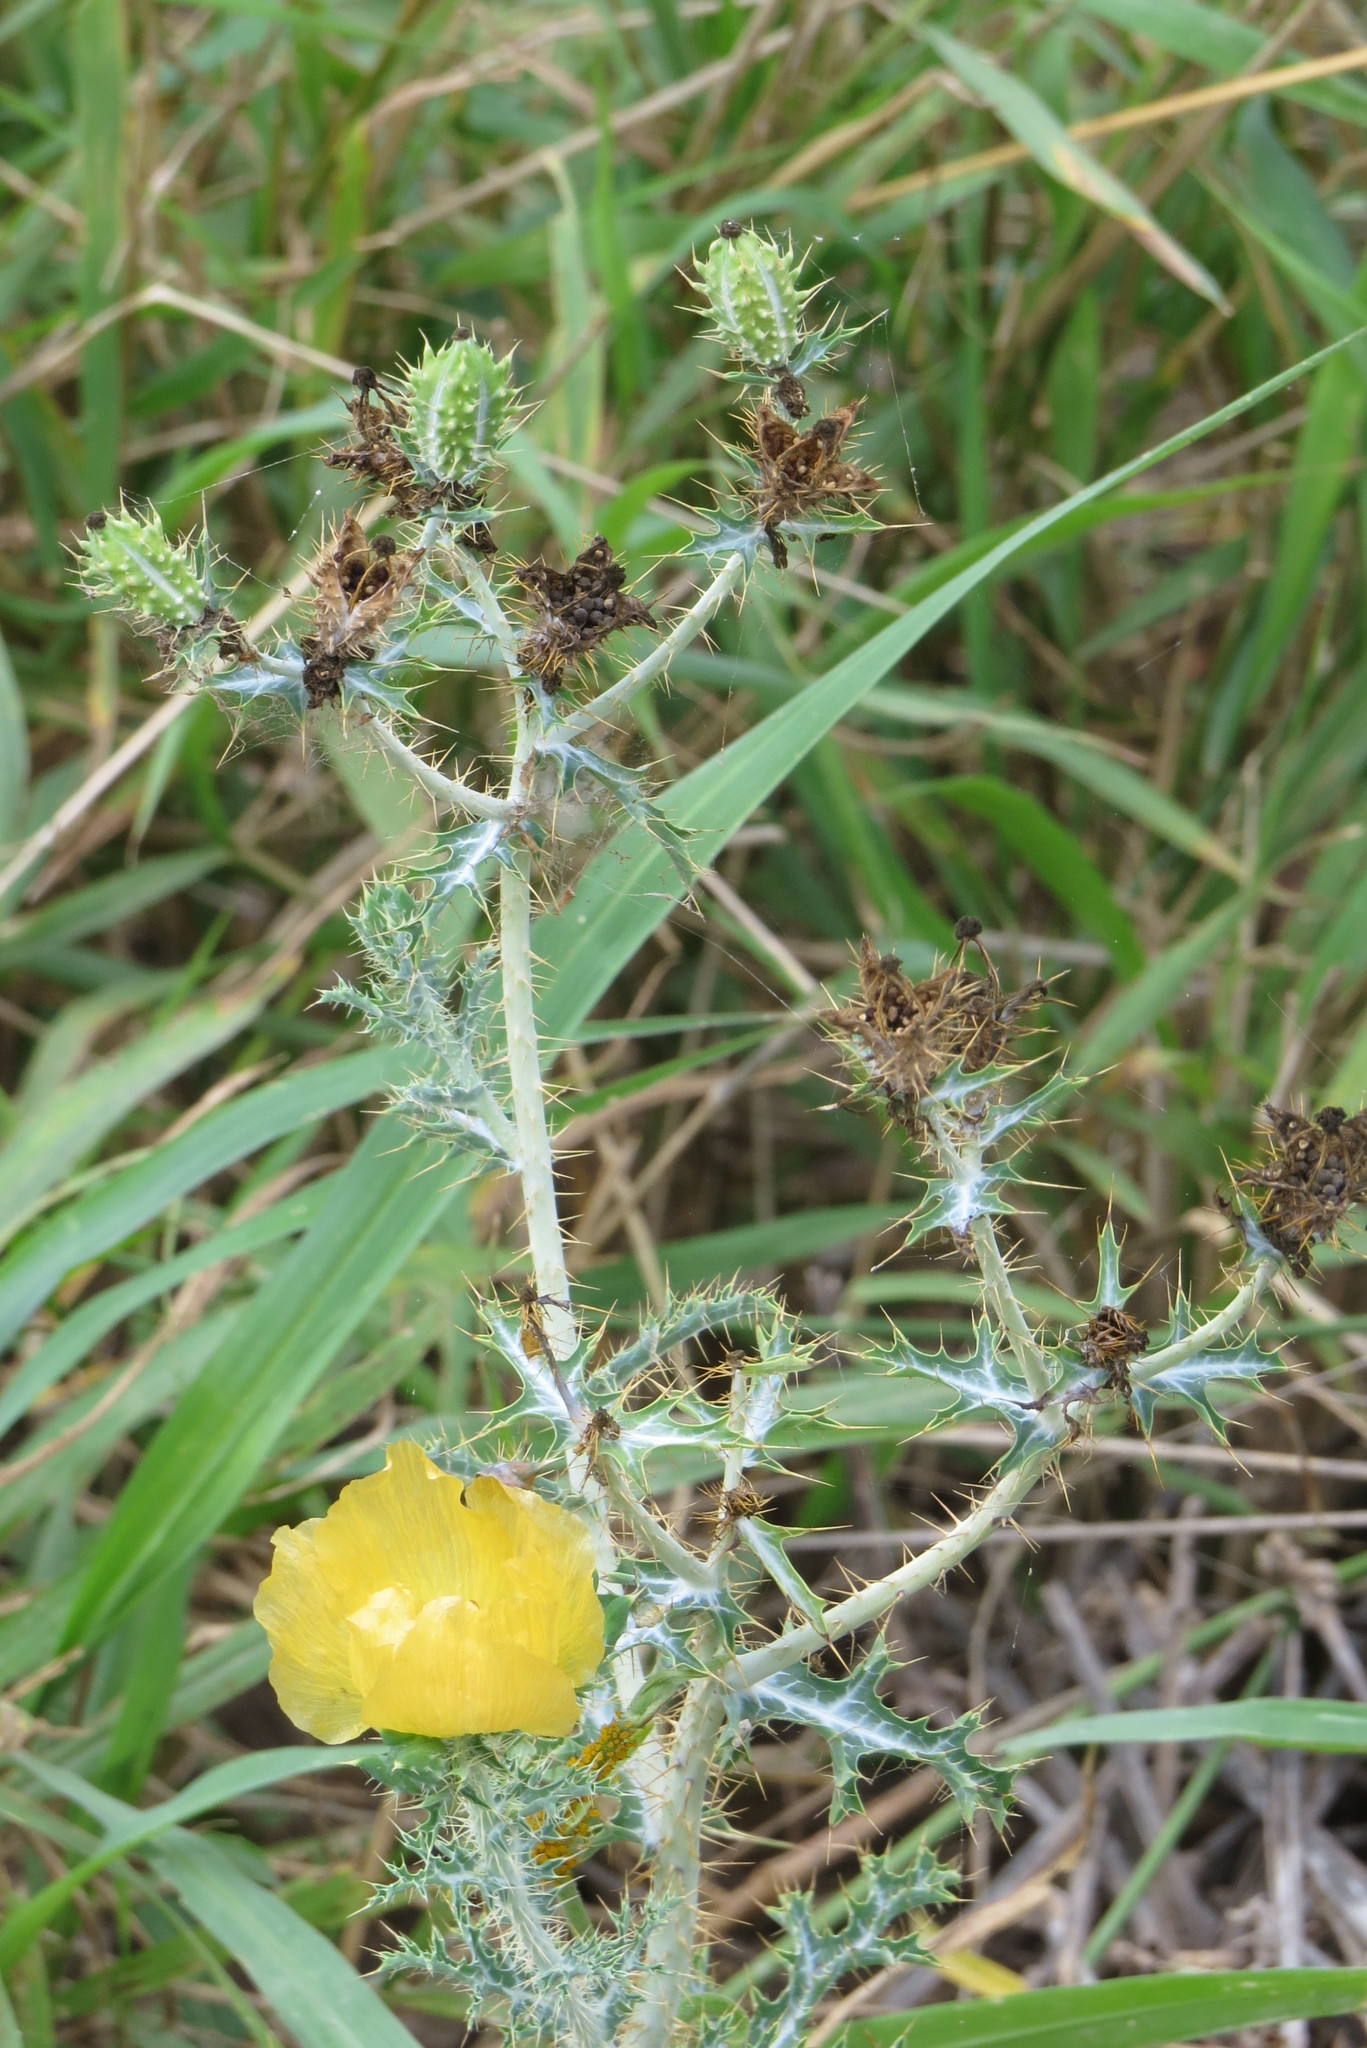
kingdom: Plantae
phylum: Tracheophyta
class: Magnoliopsida
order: Ranunculales
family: Papaveraceae
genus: Argemone
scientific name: Argemone aenea
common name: Golden prickly-poppy
